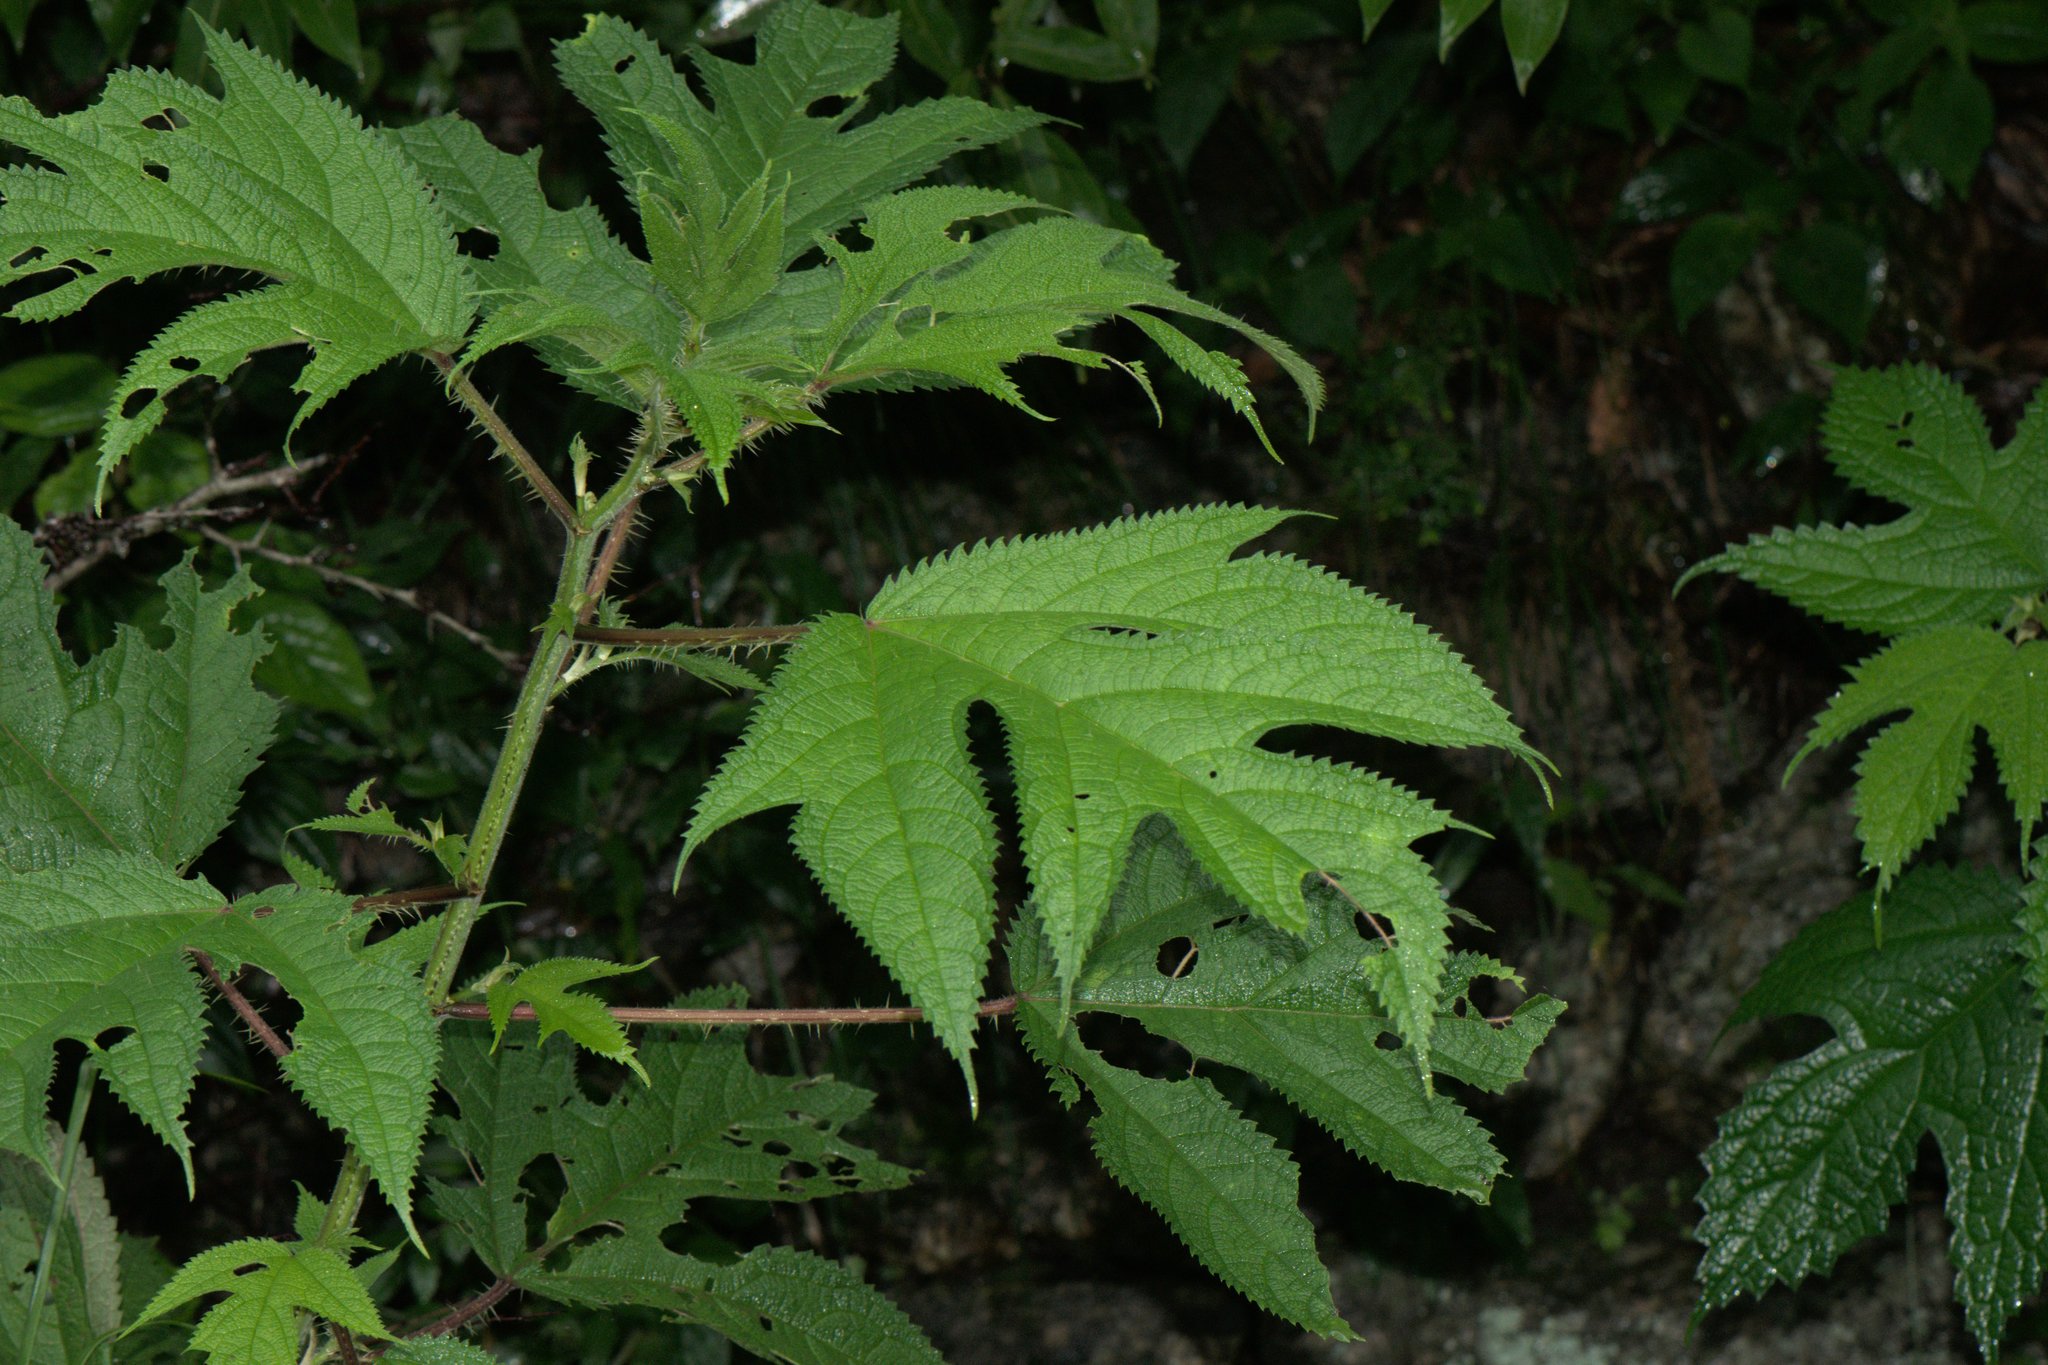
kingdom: Plantae
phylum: Tracheophyta
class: Magnoliopsida
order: Rosales
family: Urticaceae
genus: Girardinia
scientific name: Girardinia diversifolia
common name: Himalayan-nettle
